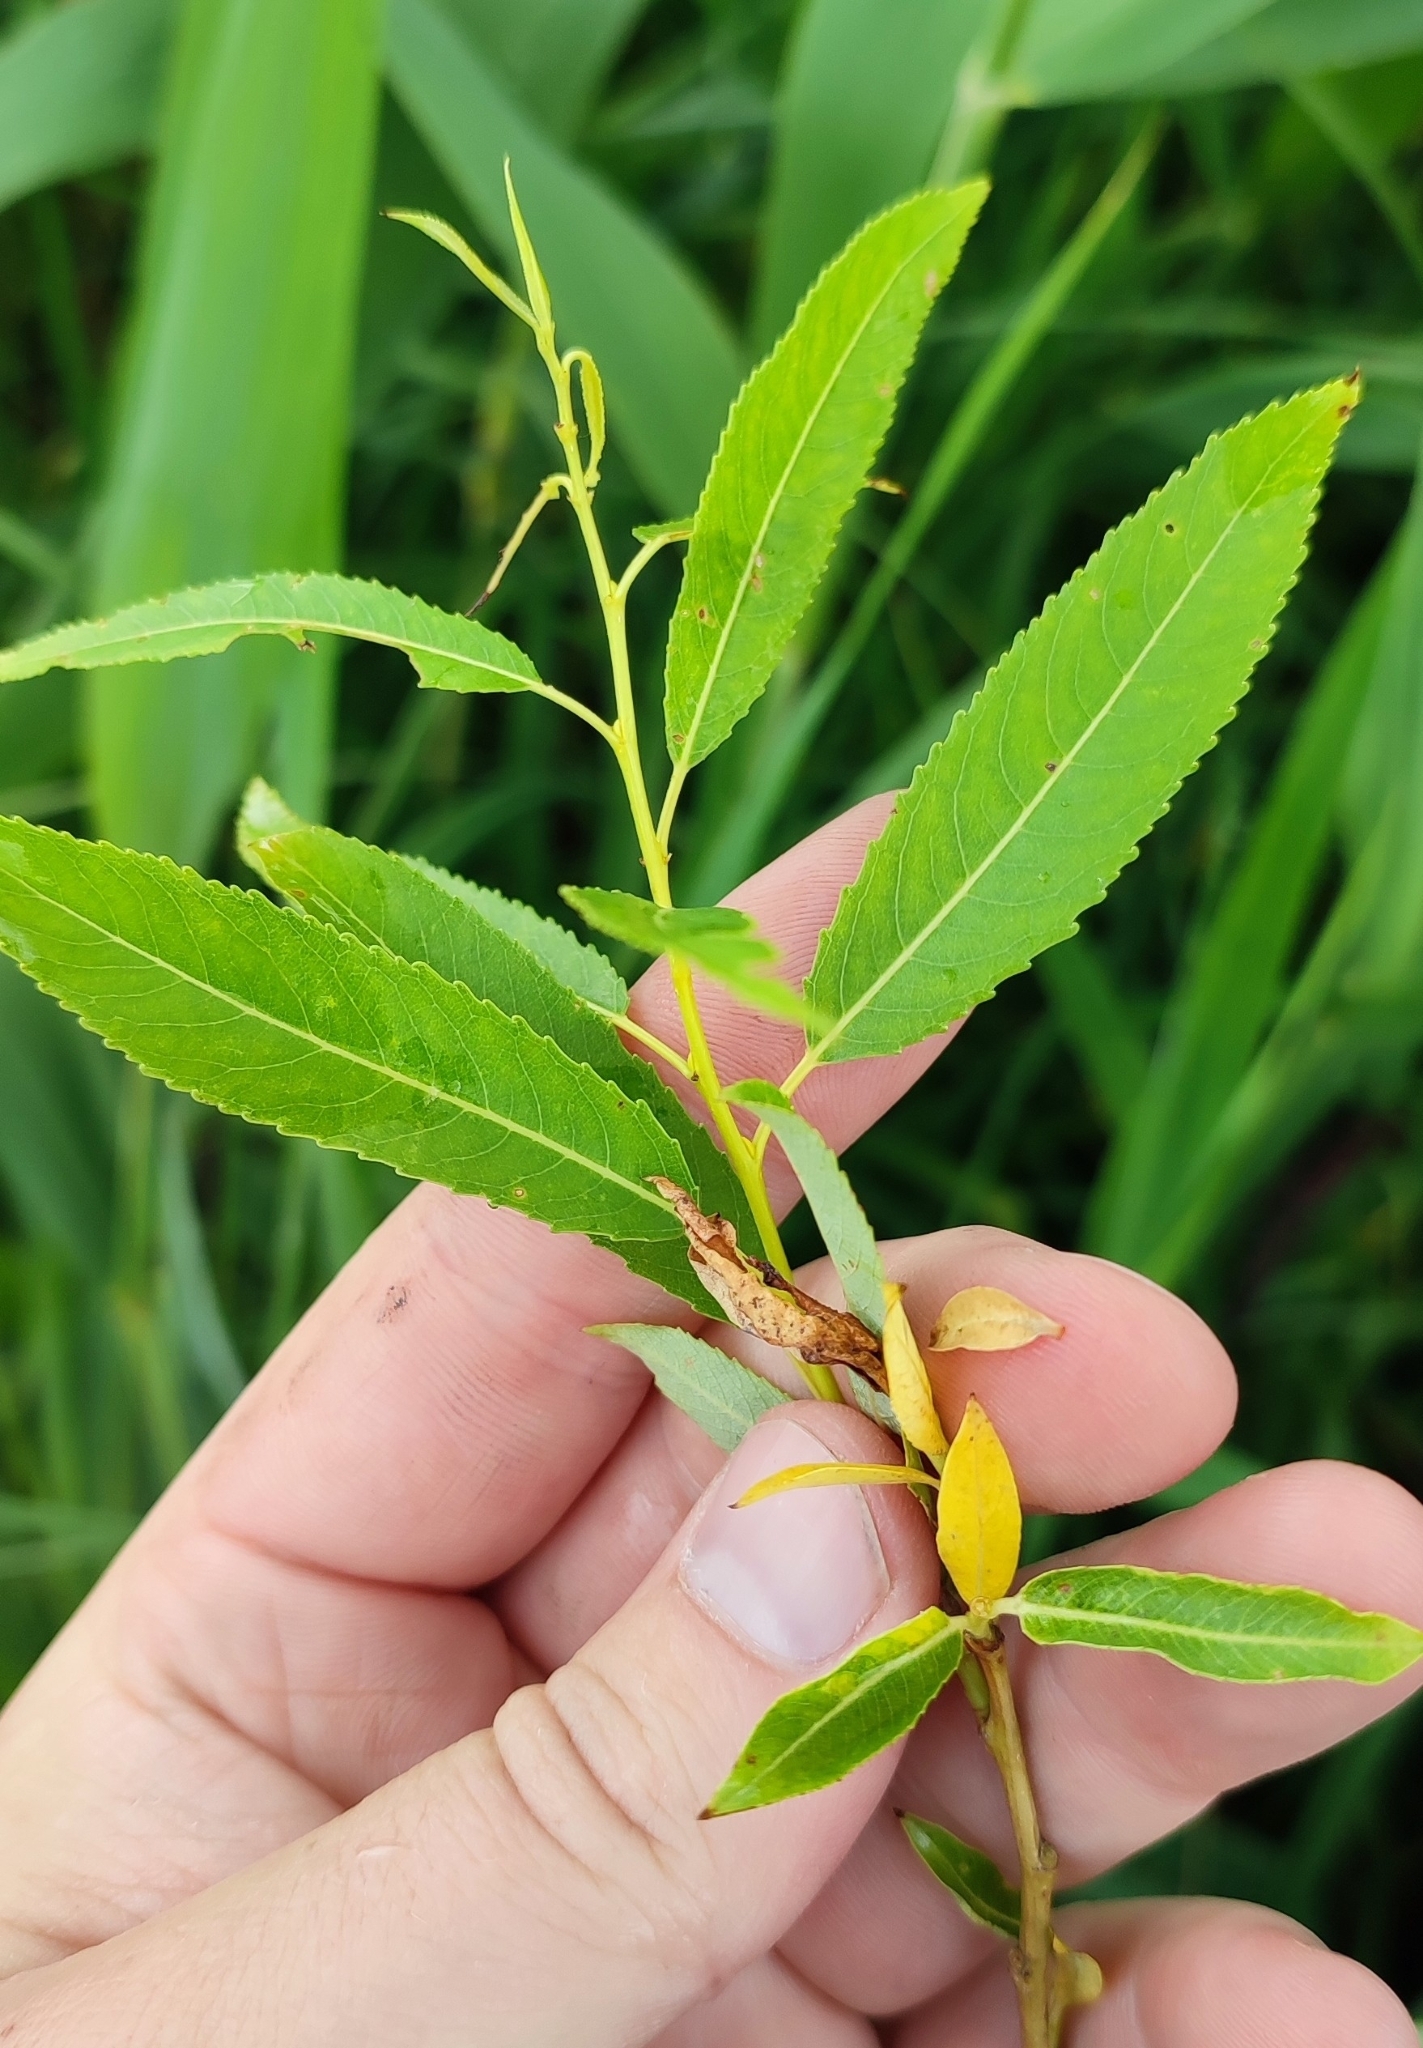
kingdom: Plantae
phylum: Tracheophyta
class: Magnoliopsida
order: Malpighiales
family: Salicaceae
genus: Salix
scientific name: Salix triandra
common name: Almond willow
